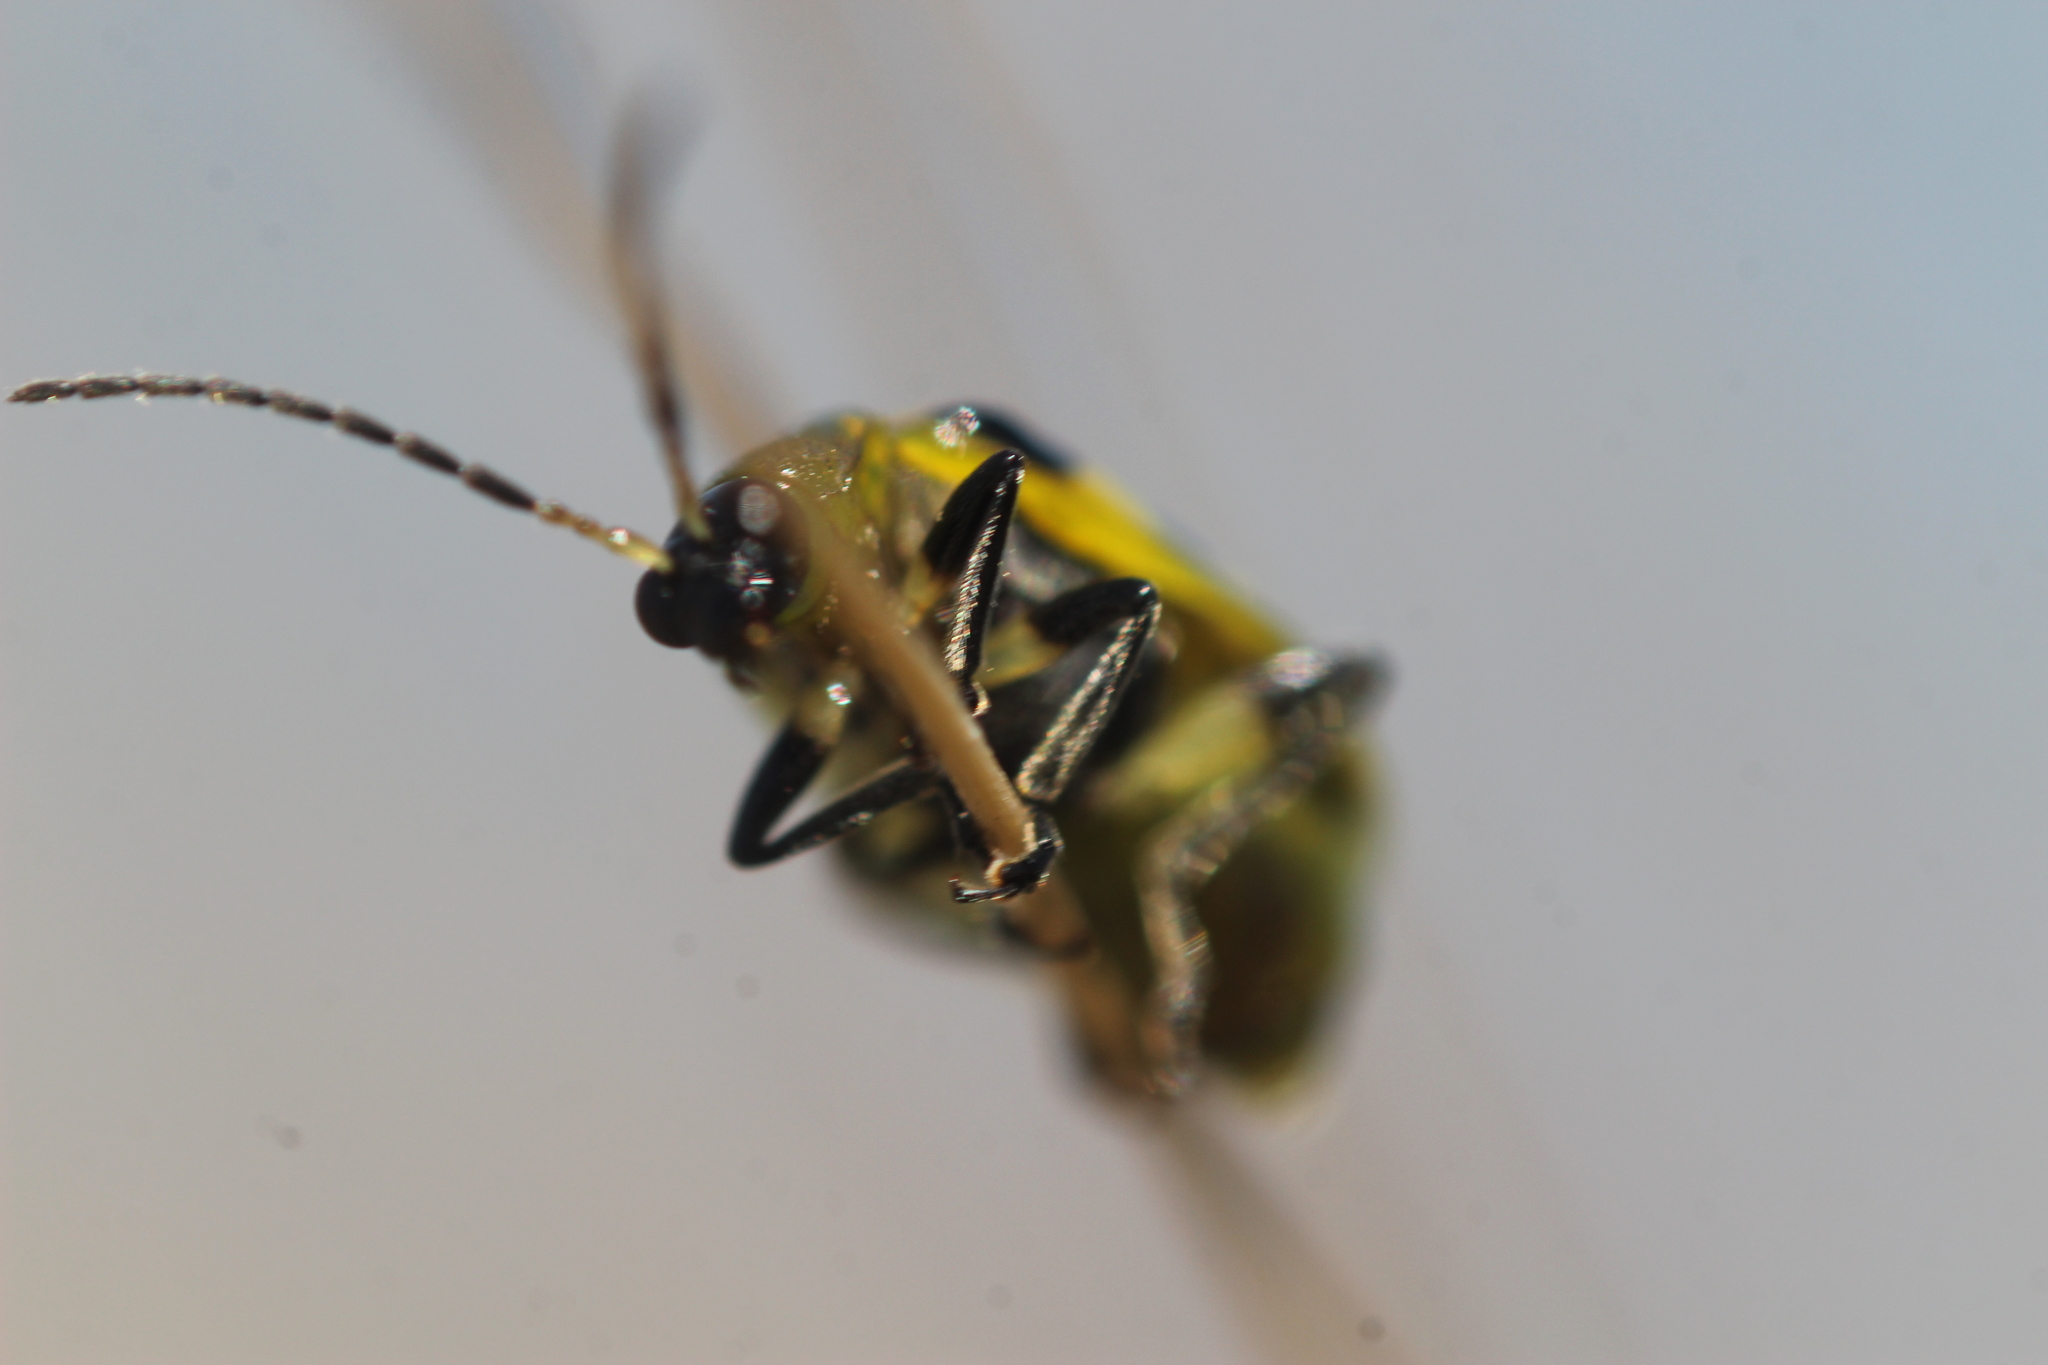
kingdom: Animalia
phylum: Arthropoda
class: Insecta
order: Coleoptera
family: Chrysomelidae
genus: Diabrotica
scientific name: Diabrotica undecimpunctata
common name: Spotted cucumber beetle
